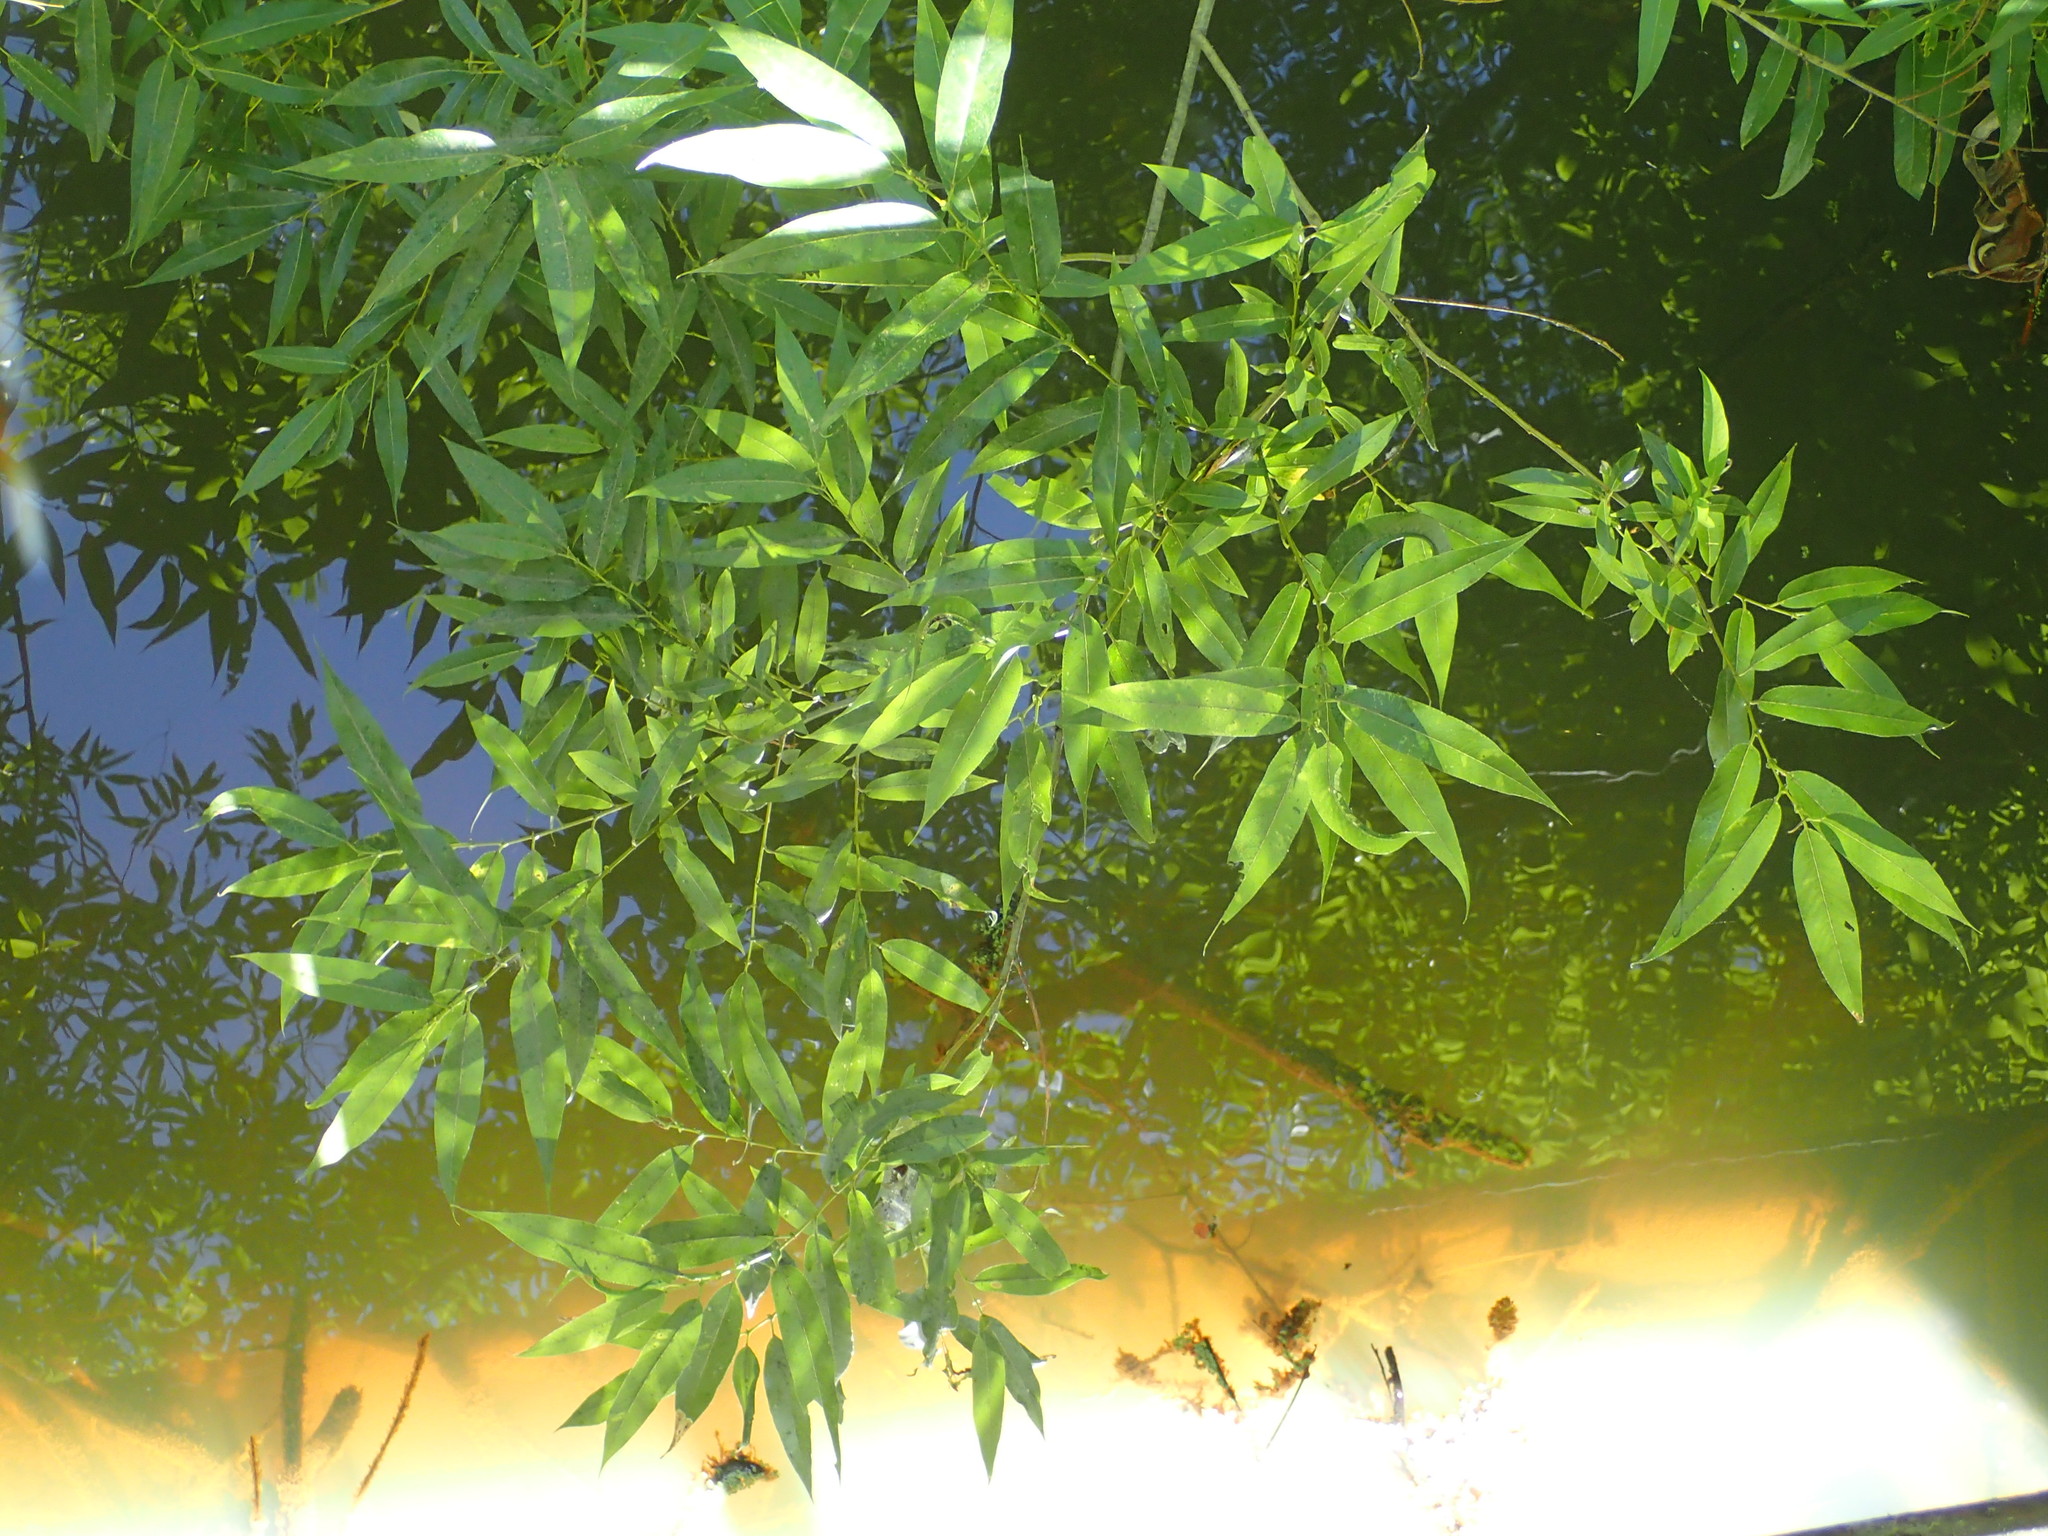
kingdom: Plantae
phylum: Tracheophyta
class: Magnoliopsida
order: Malpighiales
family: Salicaceae
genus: Salix
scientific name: Salix lucida
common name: Shining willow
